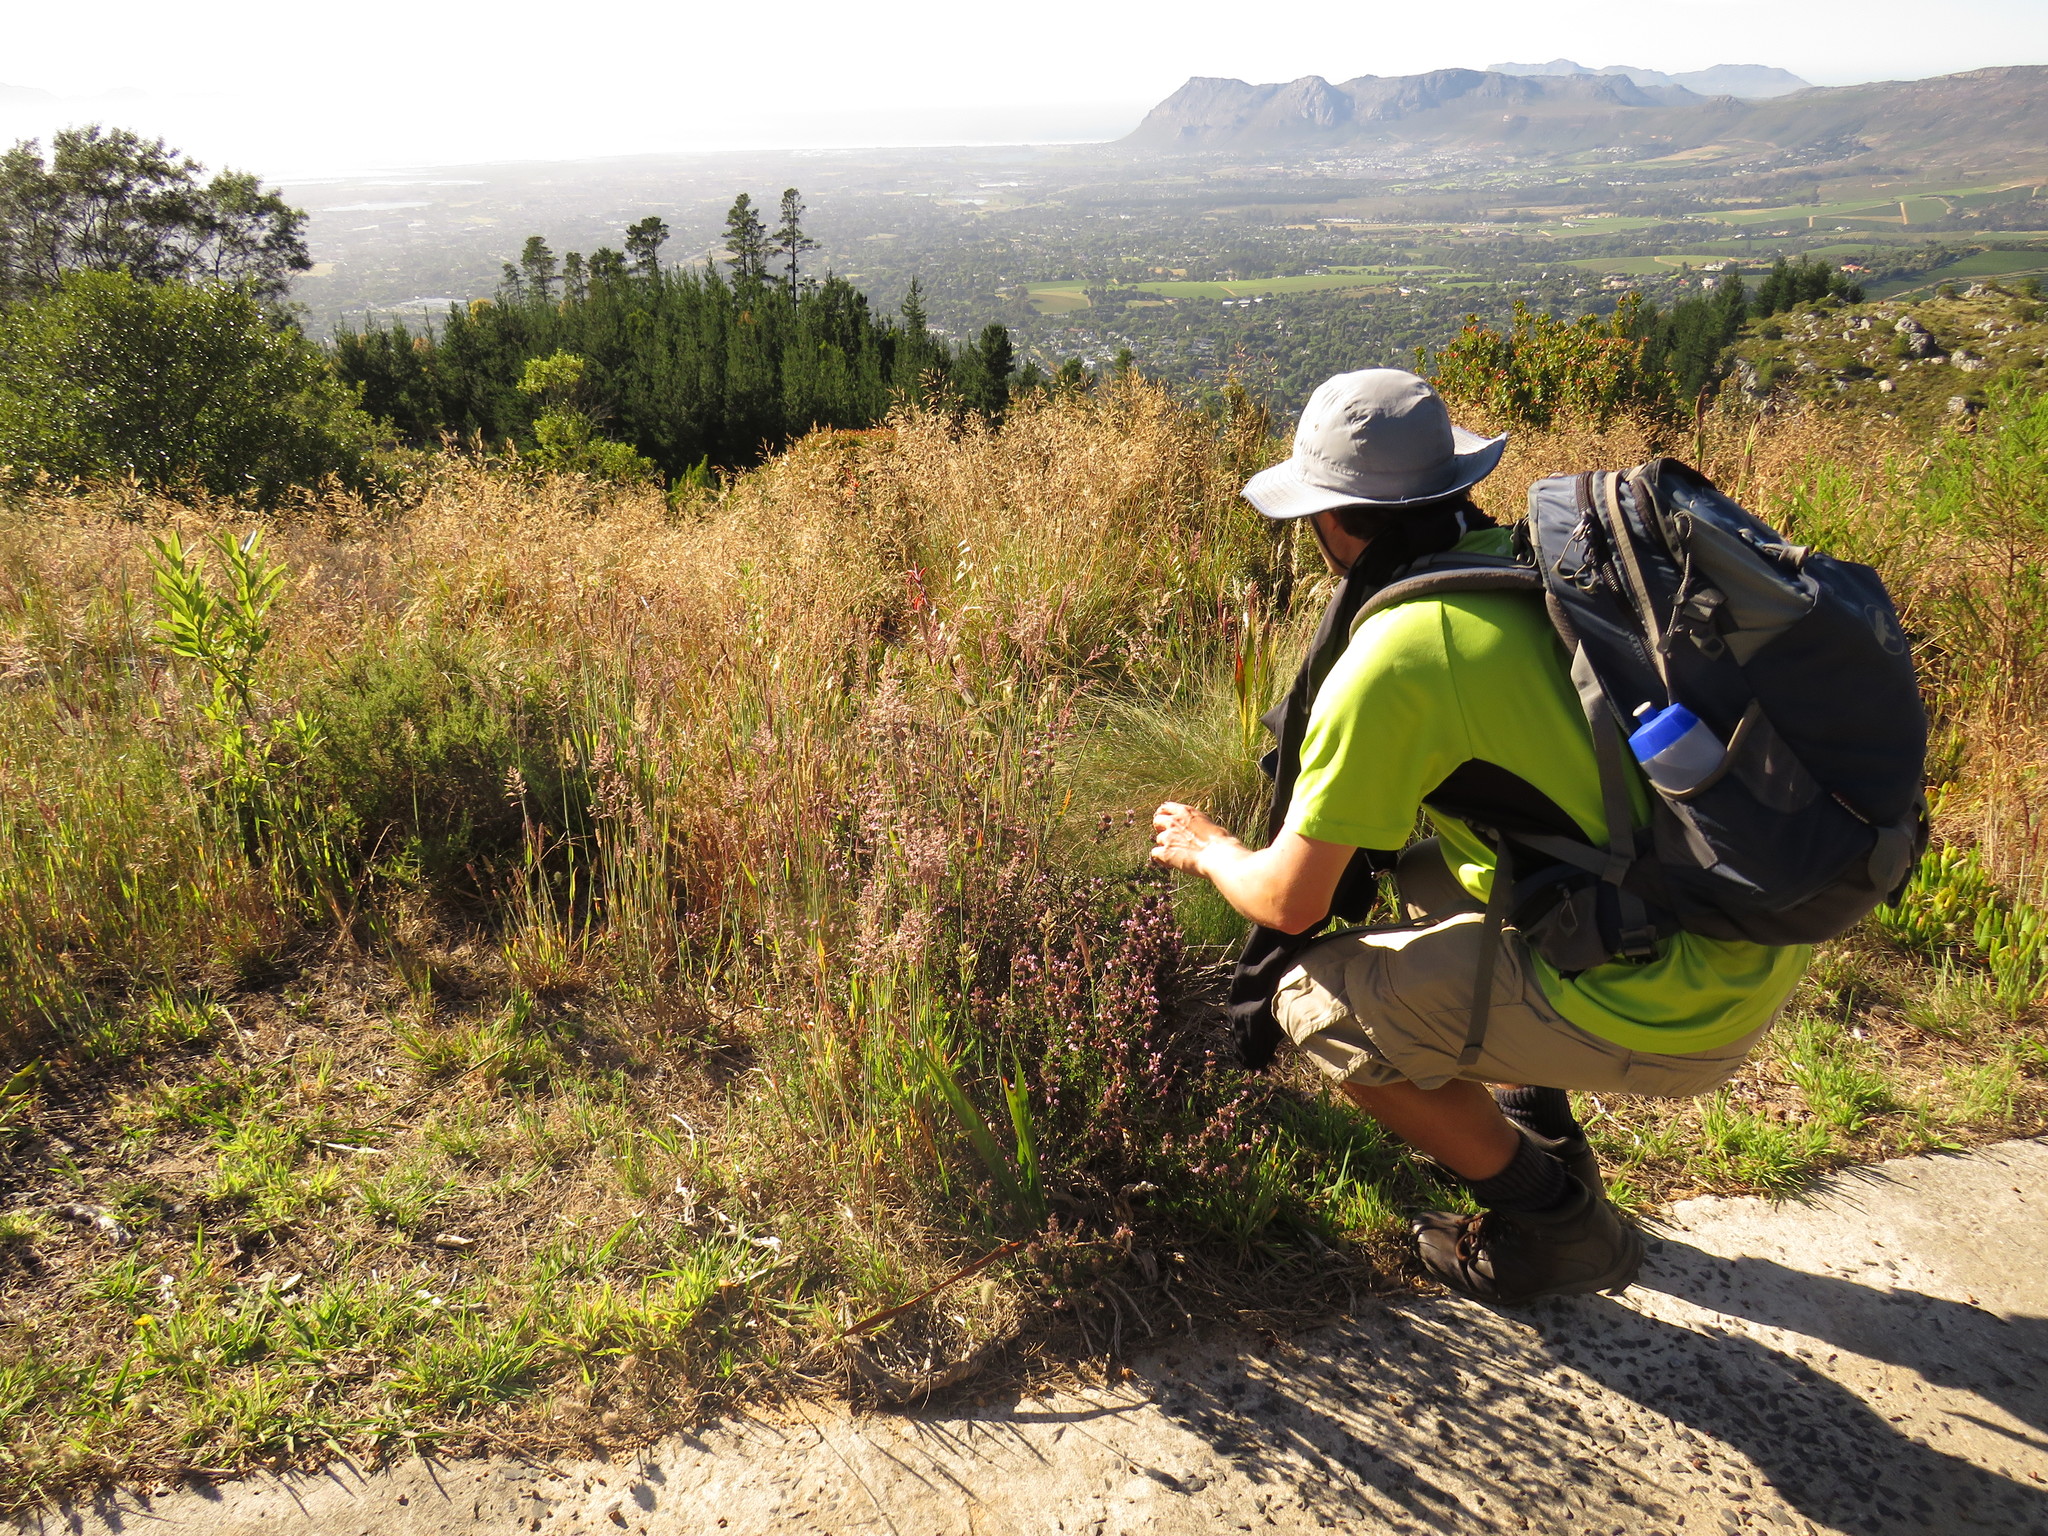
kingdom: Plantae
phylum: Tracheophyta
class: Magnoliopsida
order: Lamiales
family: Lamiaceae
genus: Satureja
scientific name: Satureja thymbra
